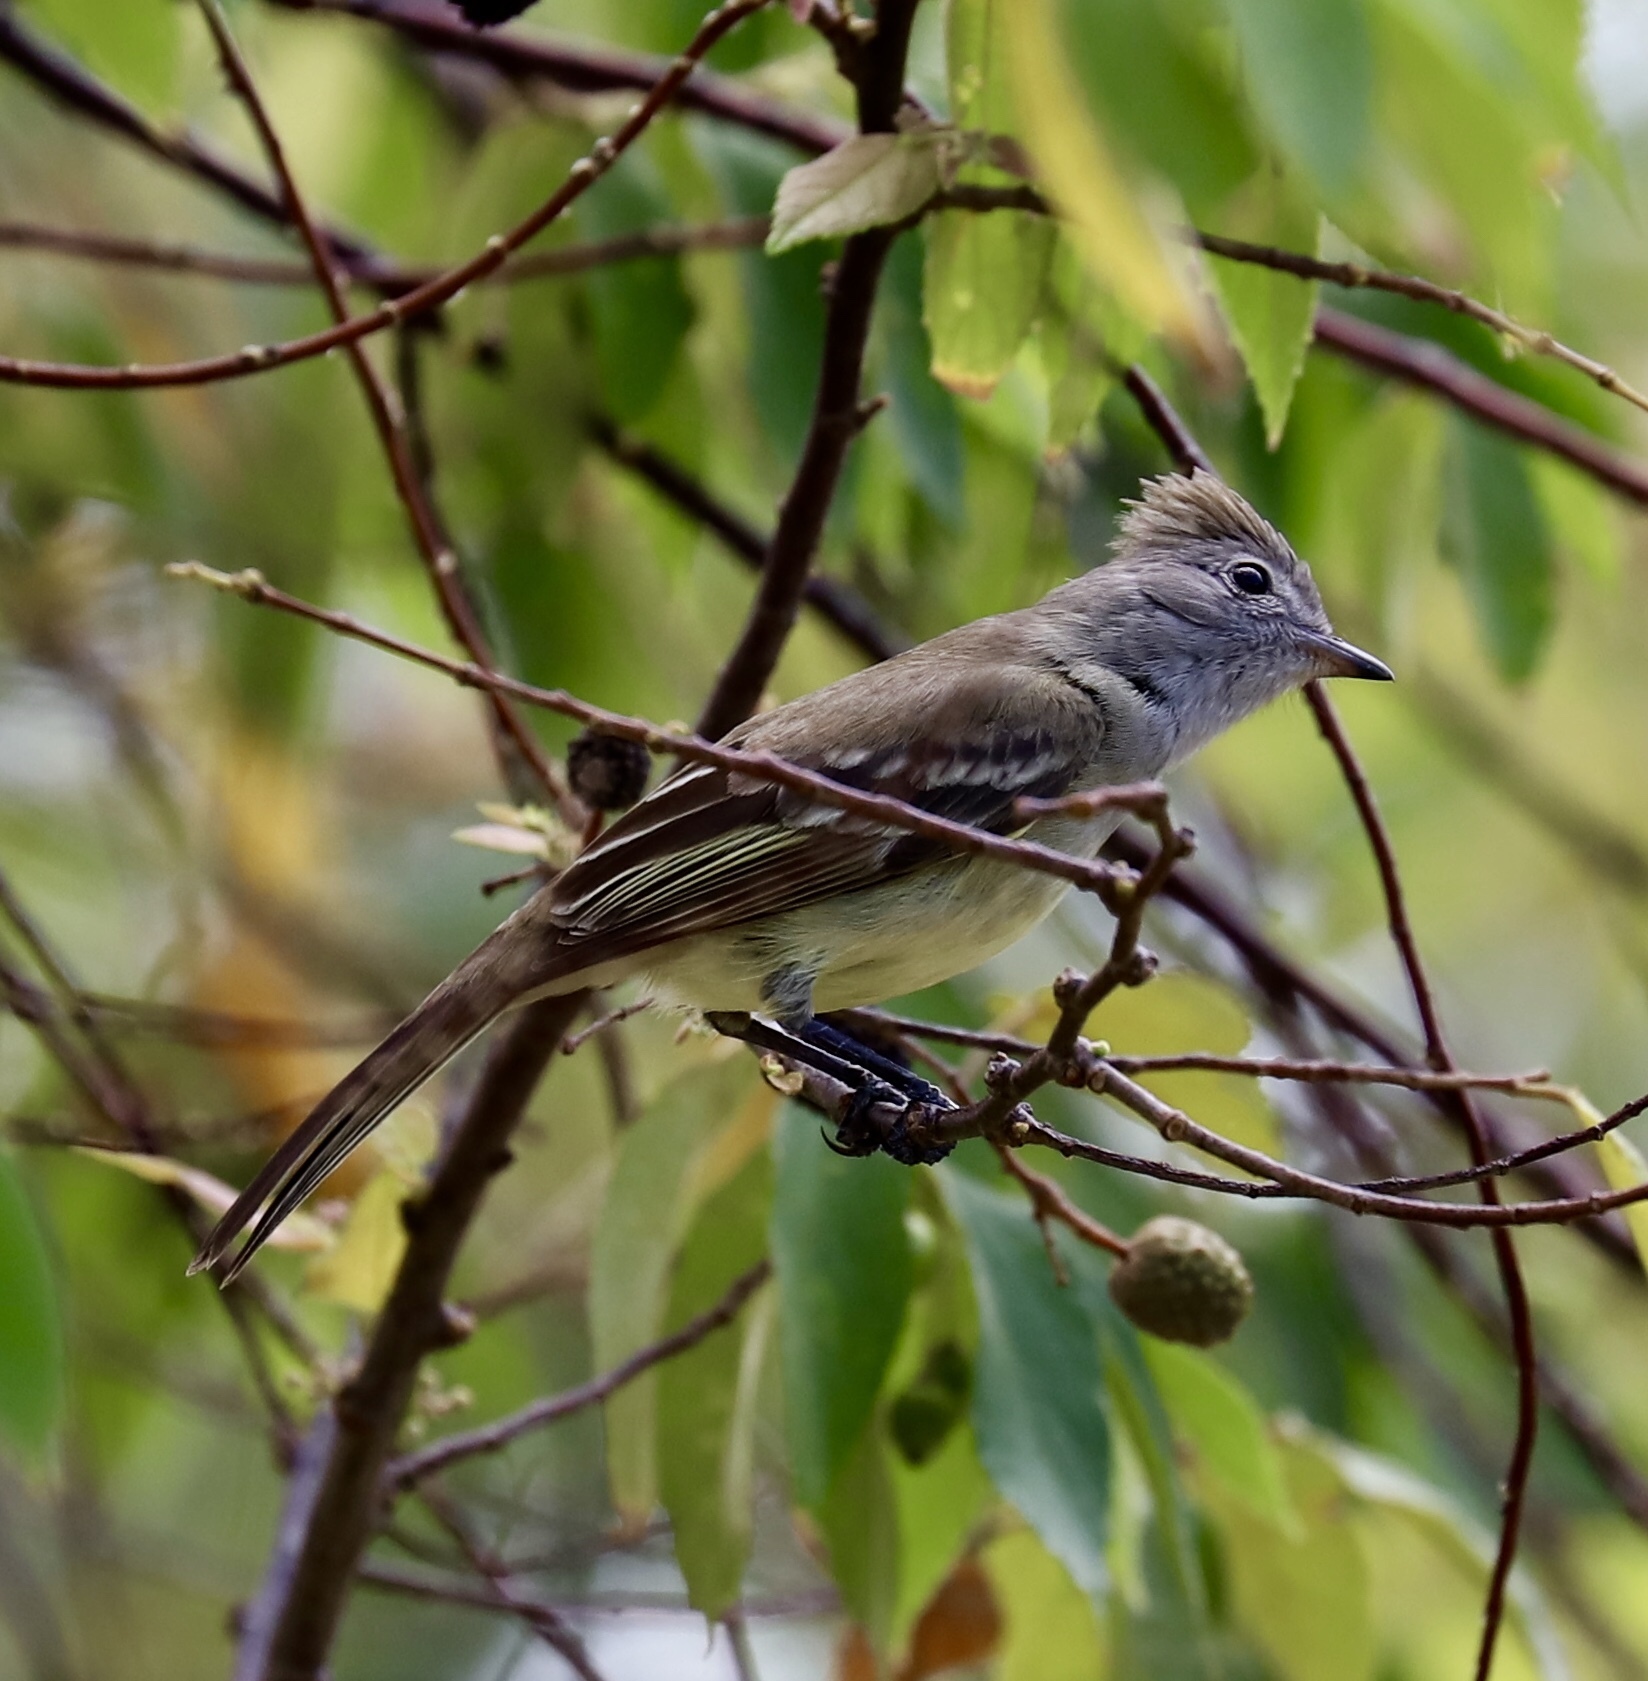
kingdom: Animalia
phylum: Chordata
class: Aves
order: Passeriformes
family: Tyrannidae
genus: Elaenia
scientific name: Elaenia flavogaster
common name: Yellow-bellied elaenia
